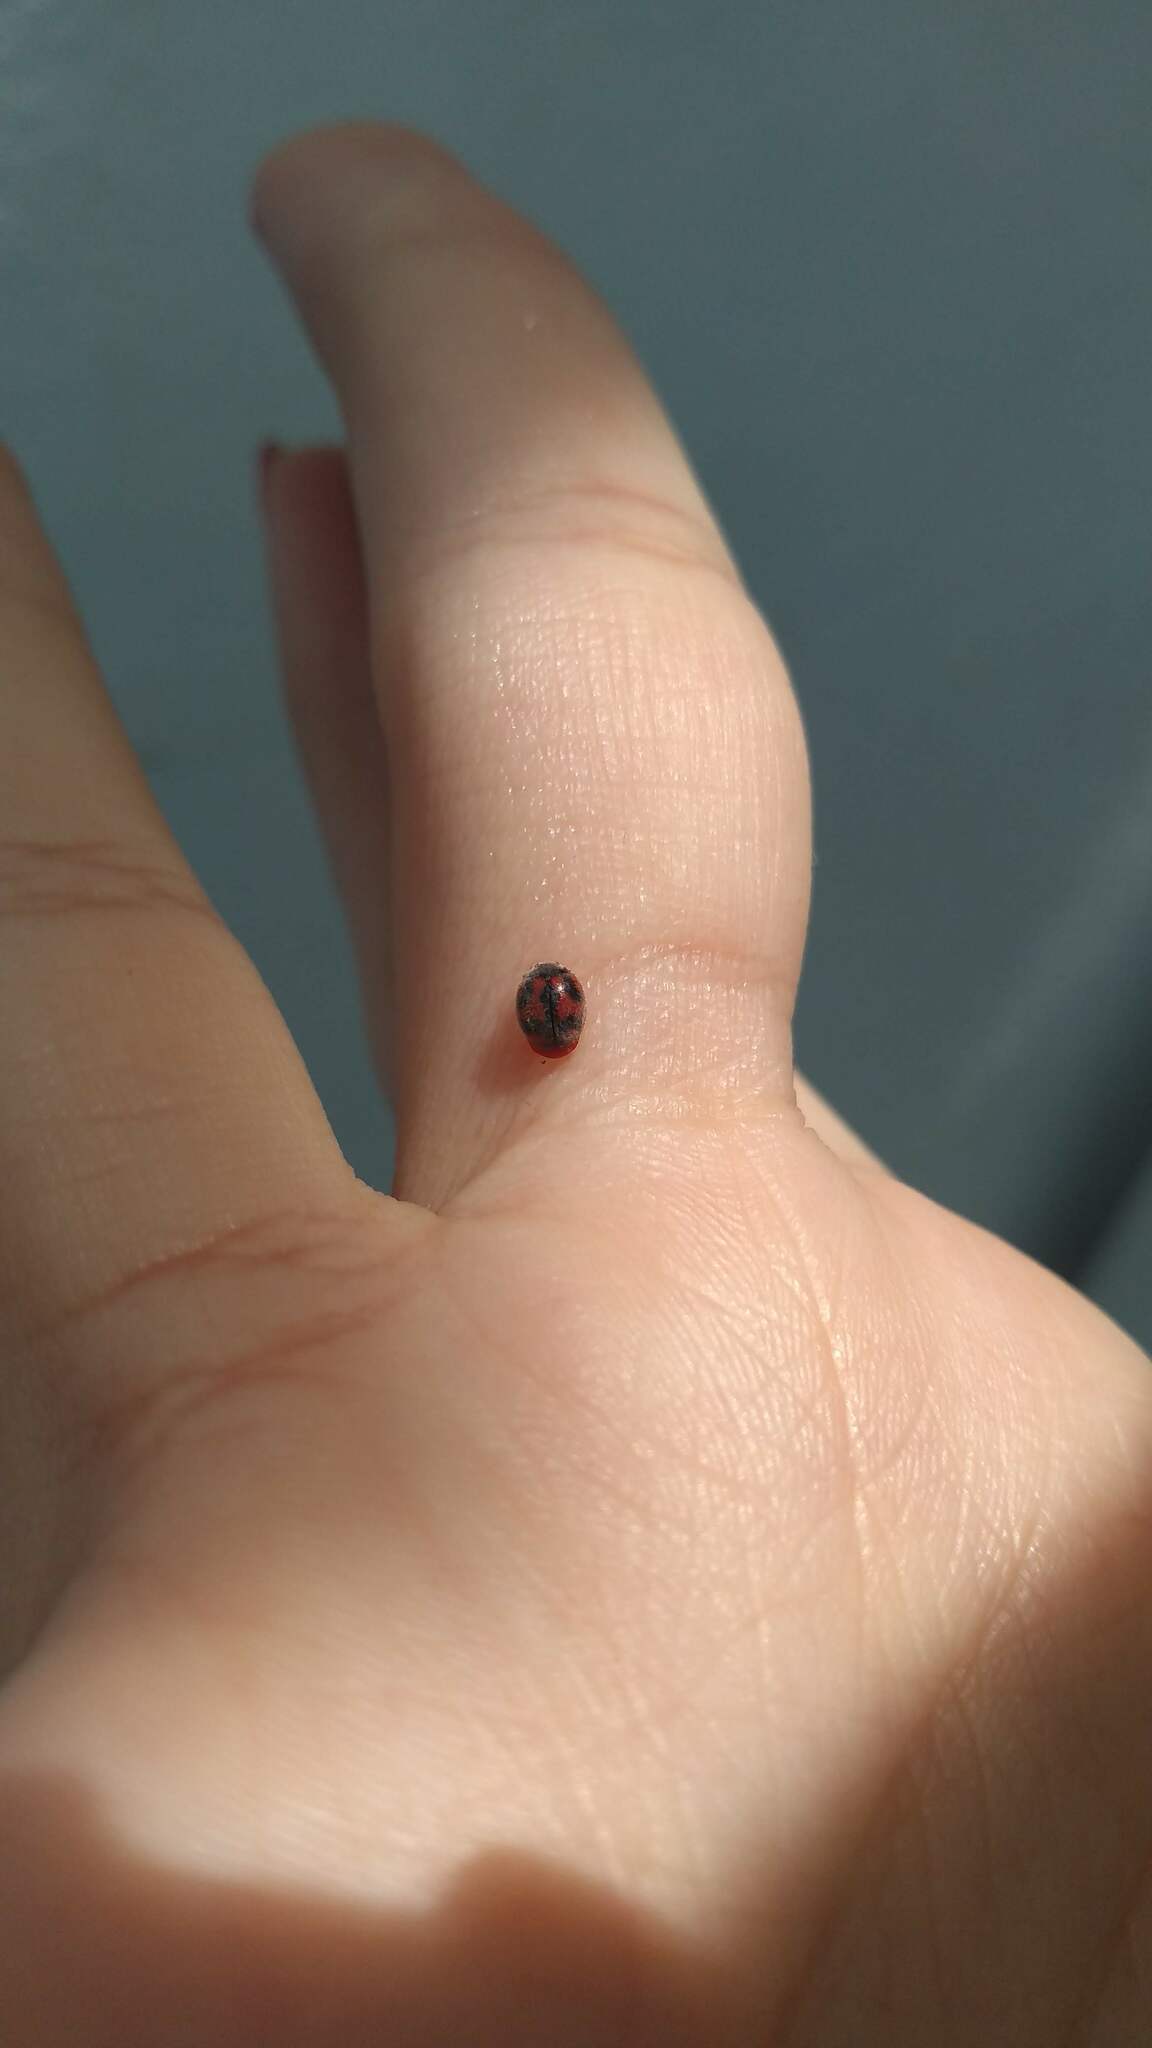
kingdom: Animalia
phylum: Arthropoda
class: Insecta
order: Coleoptera
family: Coccinellidae
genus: Novius
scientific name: Novius cardinalis
